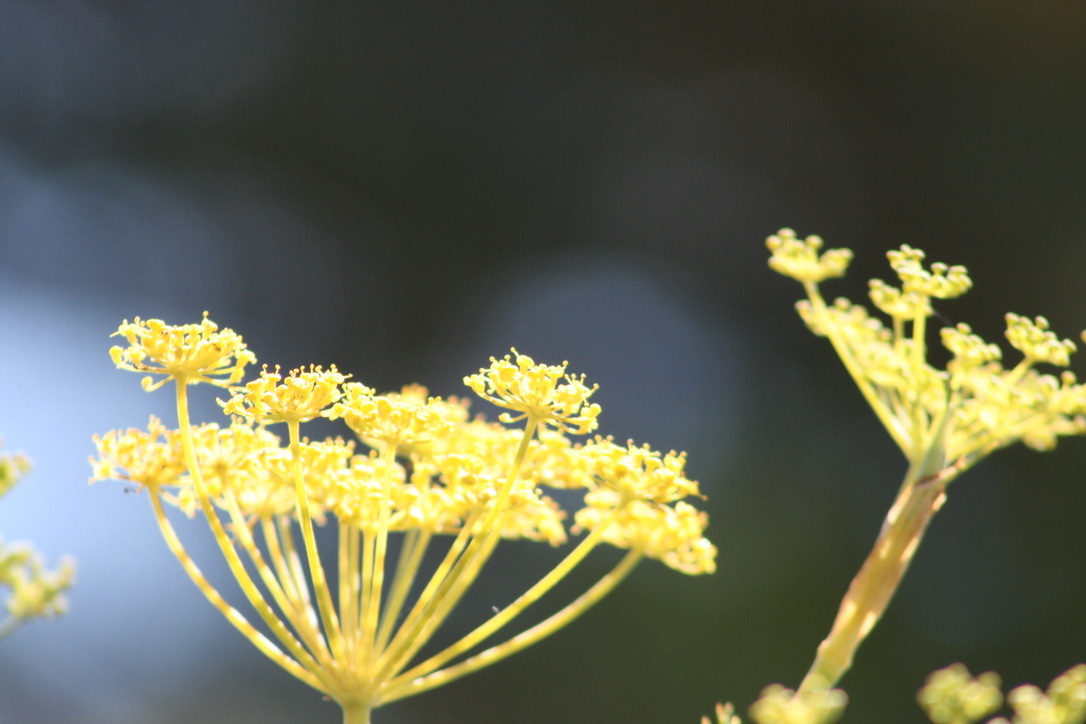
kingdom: Plantae
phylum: Tracheophyta
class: Magnoliopsida
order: Apiales
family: Apiaceae
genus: Foeniculum
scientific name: Foeniculum vulgare
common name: Fennel
